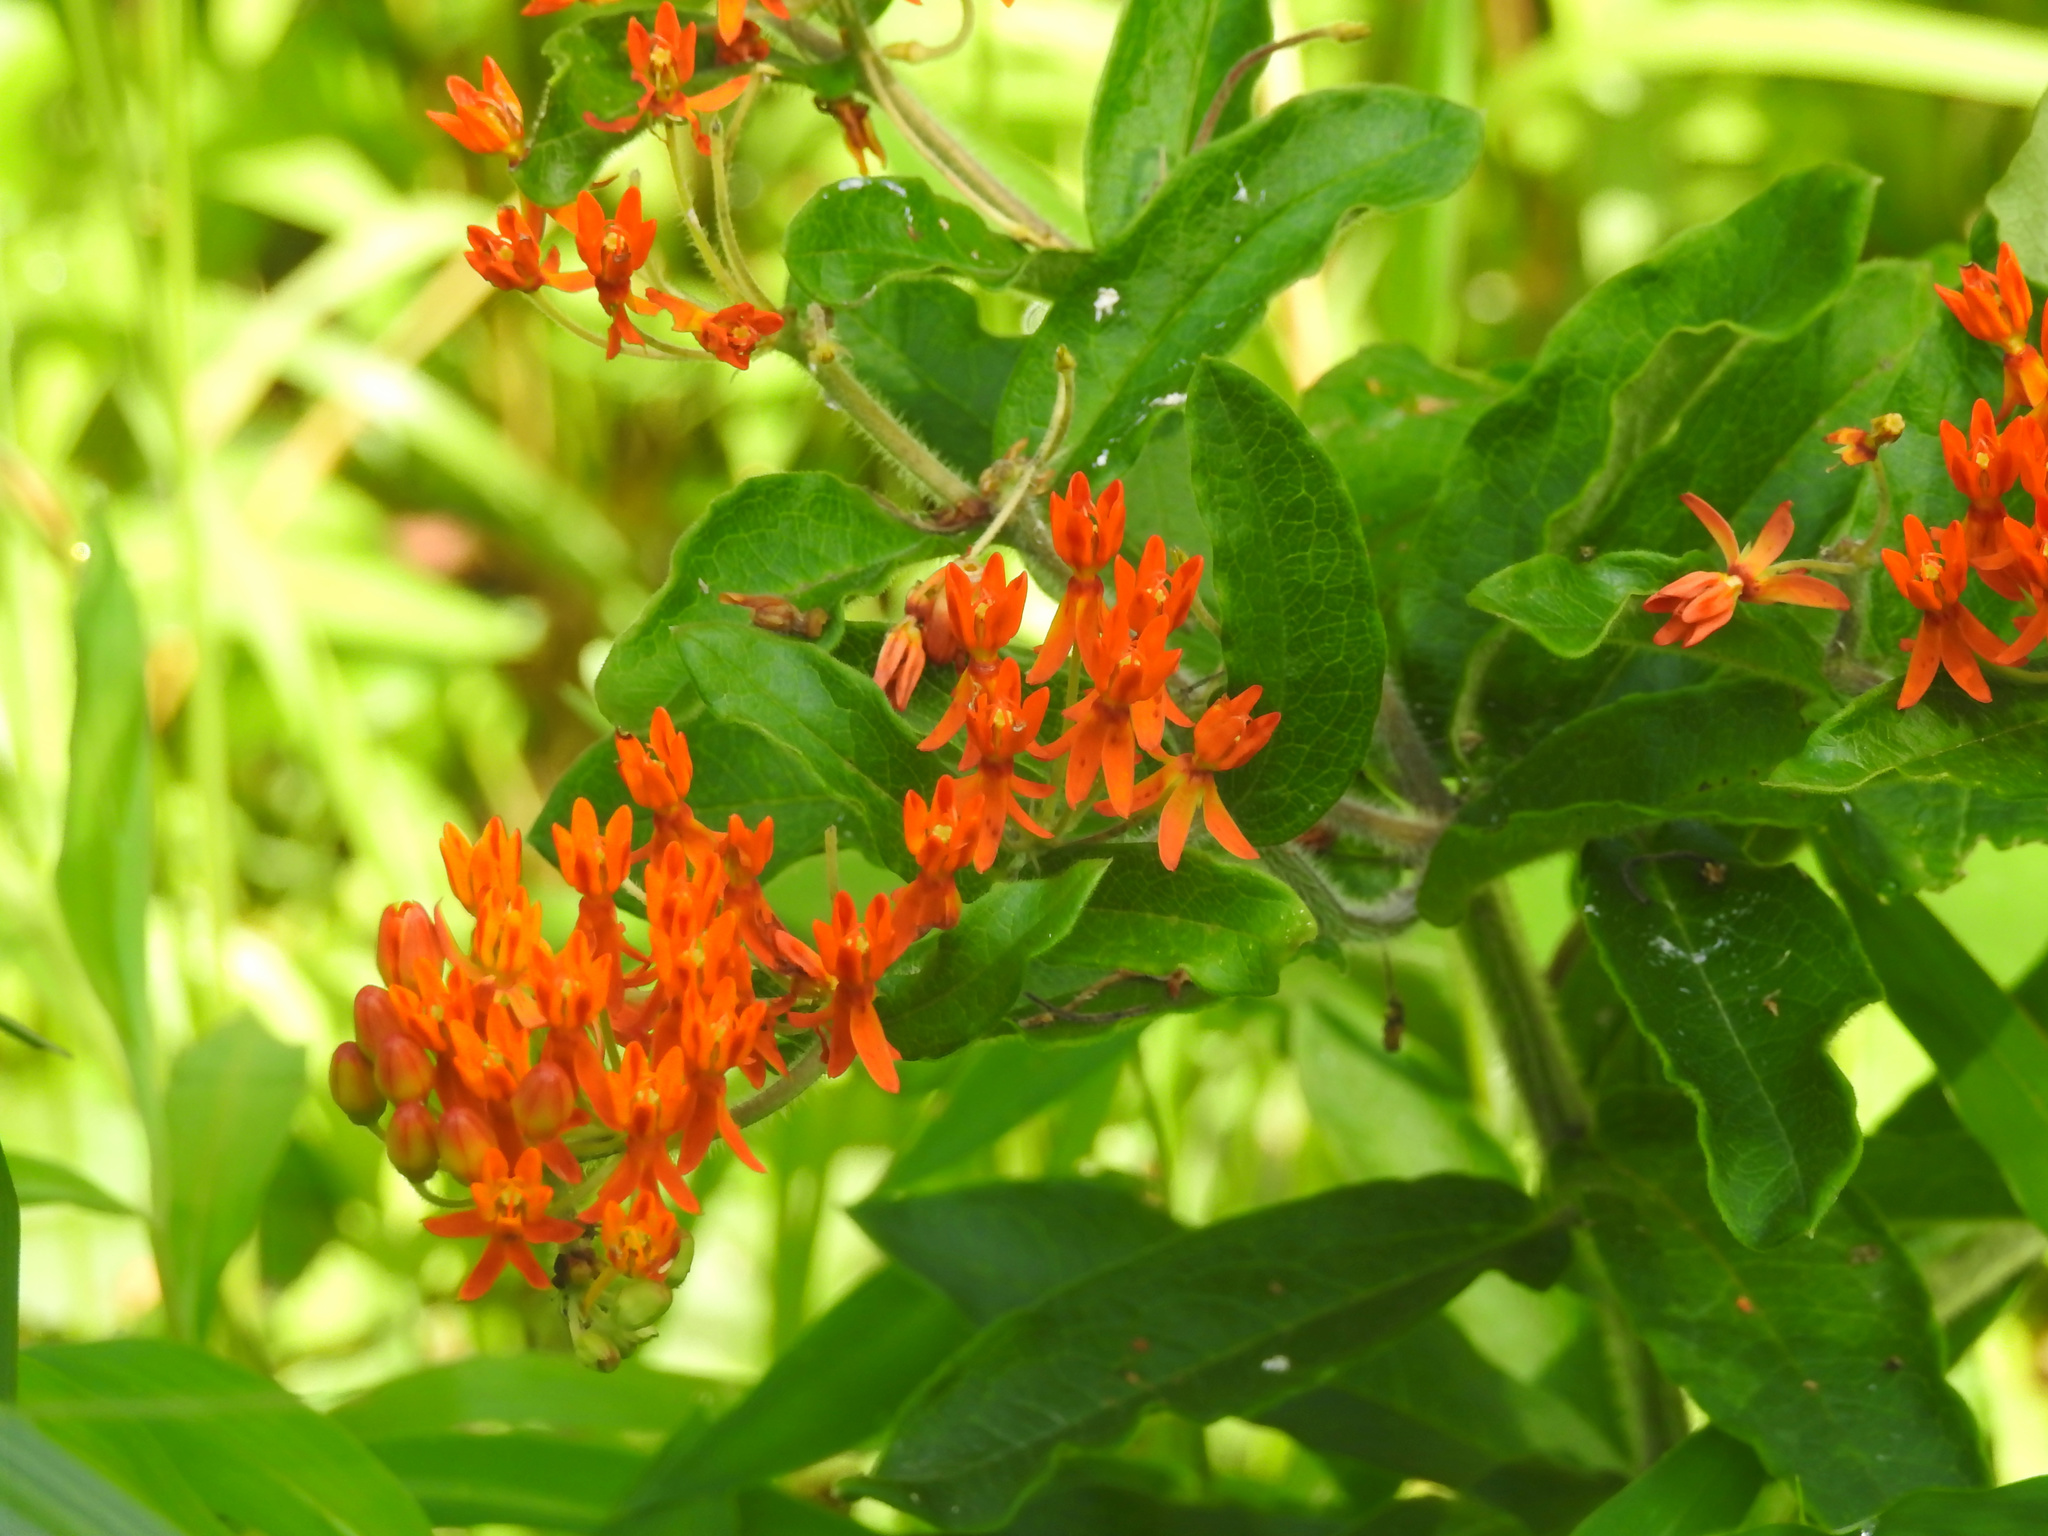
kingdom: Plantae
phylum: Tracheophyta
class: Magnoliopsida
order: Gentianales
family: Apocynaceae
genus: Asclepias
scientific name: Asclepias tuberosa
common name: Butterfly milkweed
